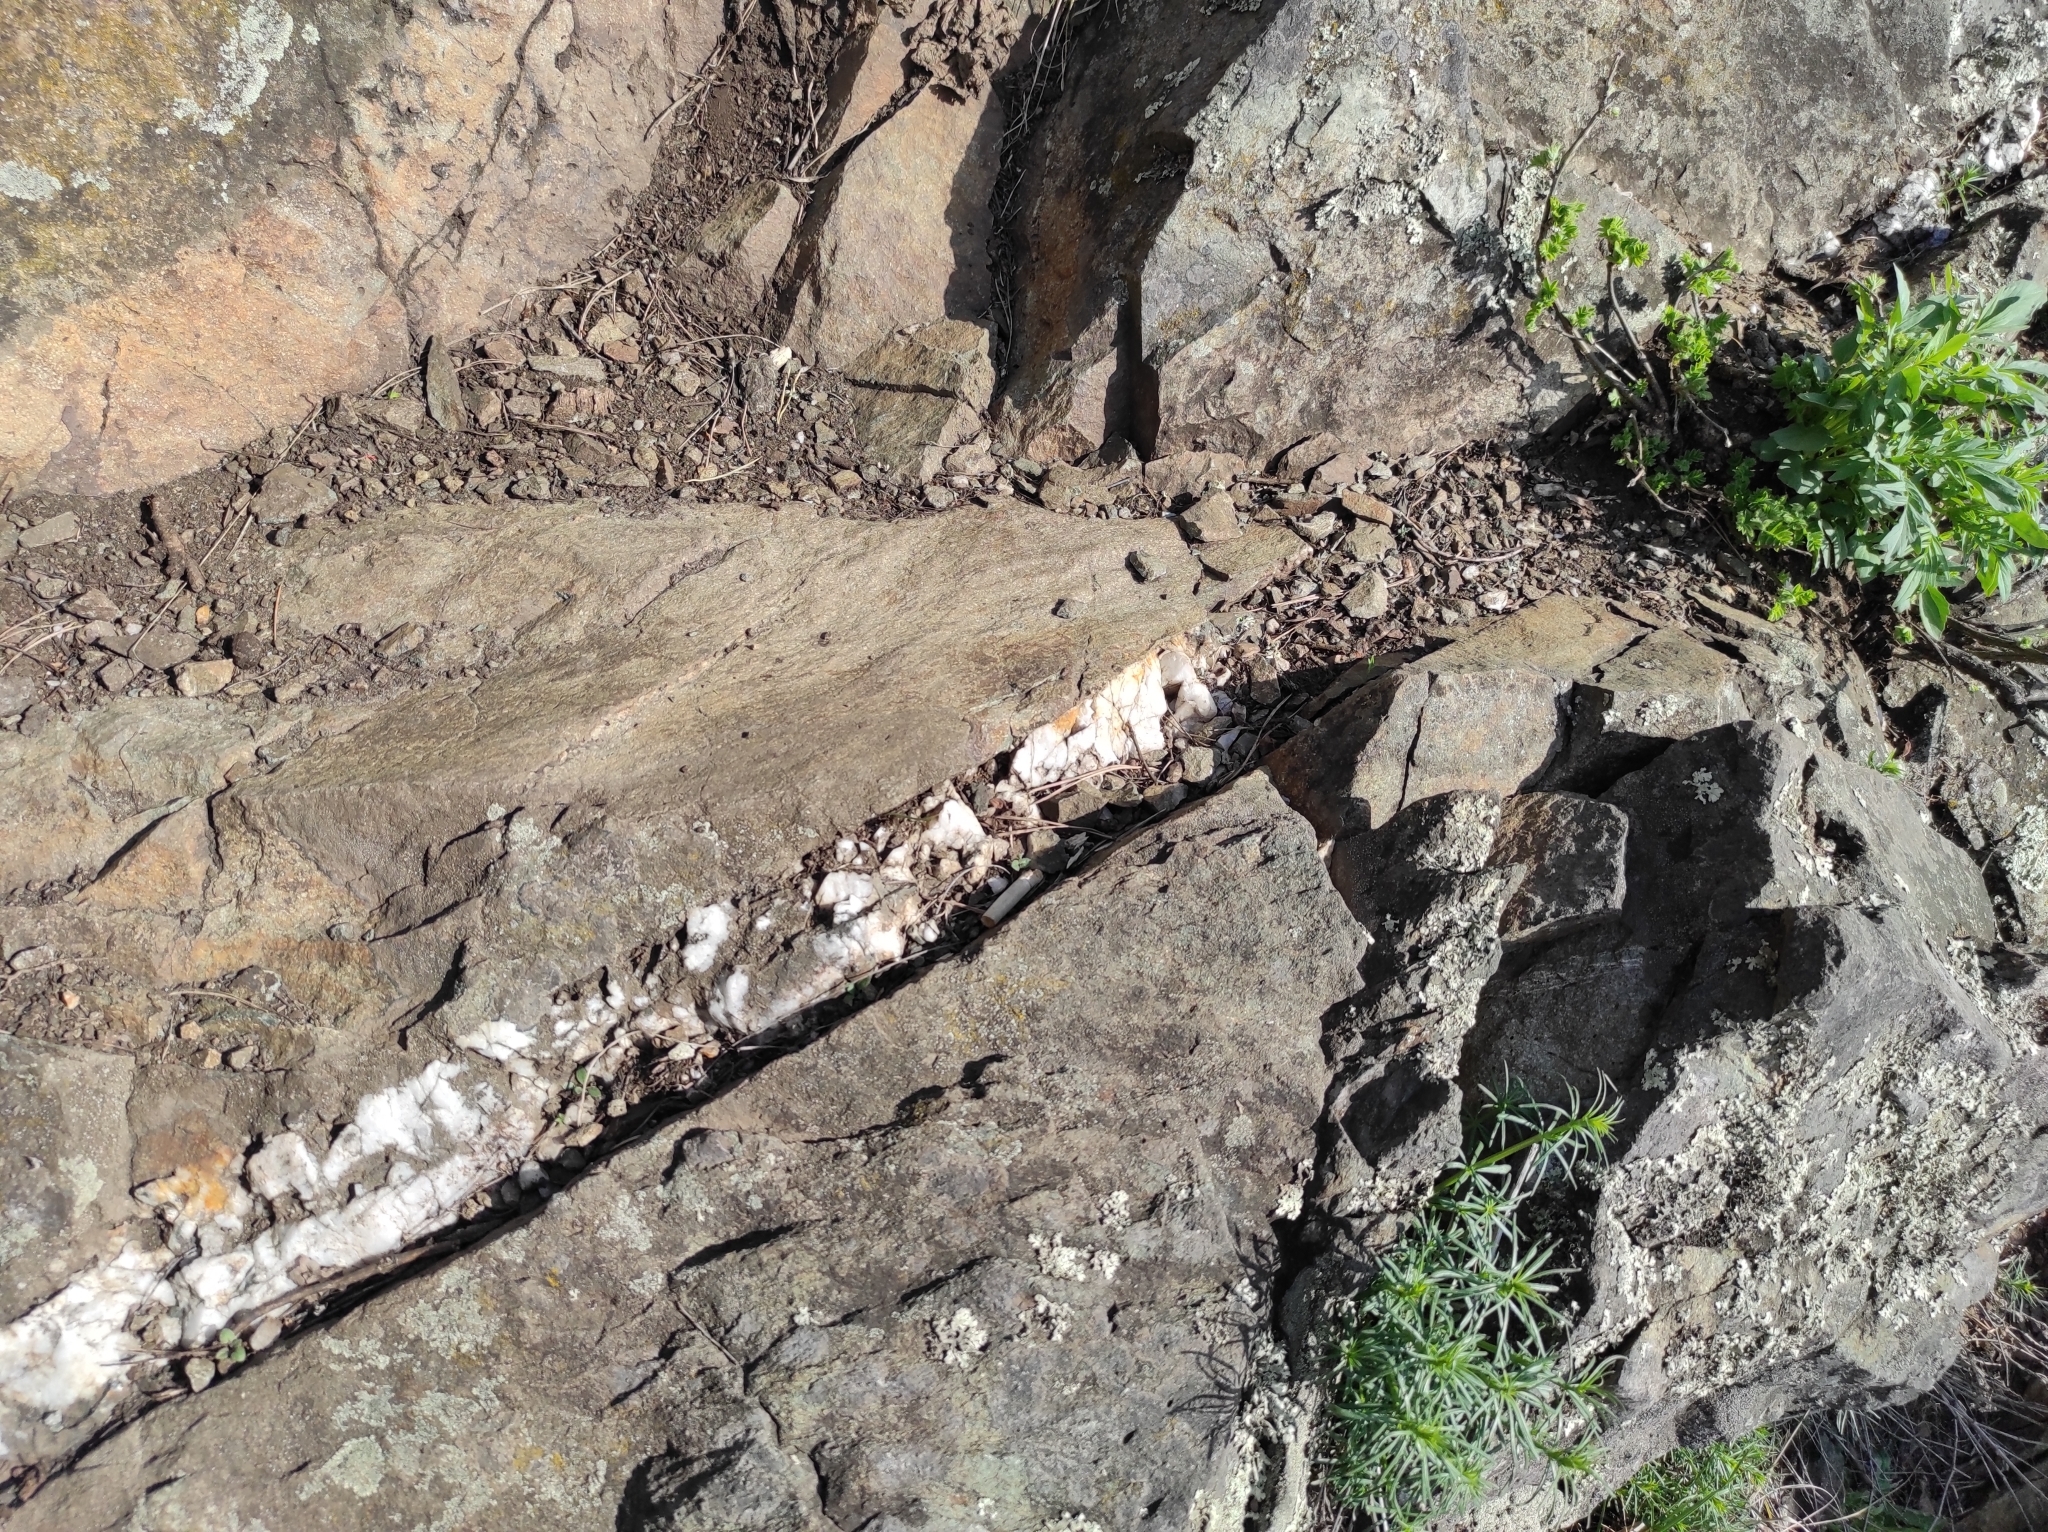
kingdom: Plantae
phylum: Tracheophyta
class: Magnoliopsida
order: Fabales
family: Fabaceae
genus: Caragana
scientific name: Caragana arborescens
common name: Siberian peashrub
